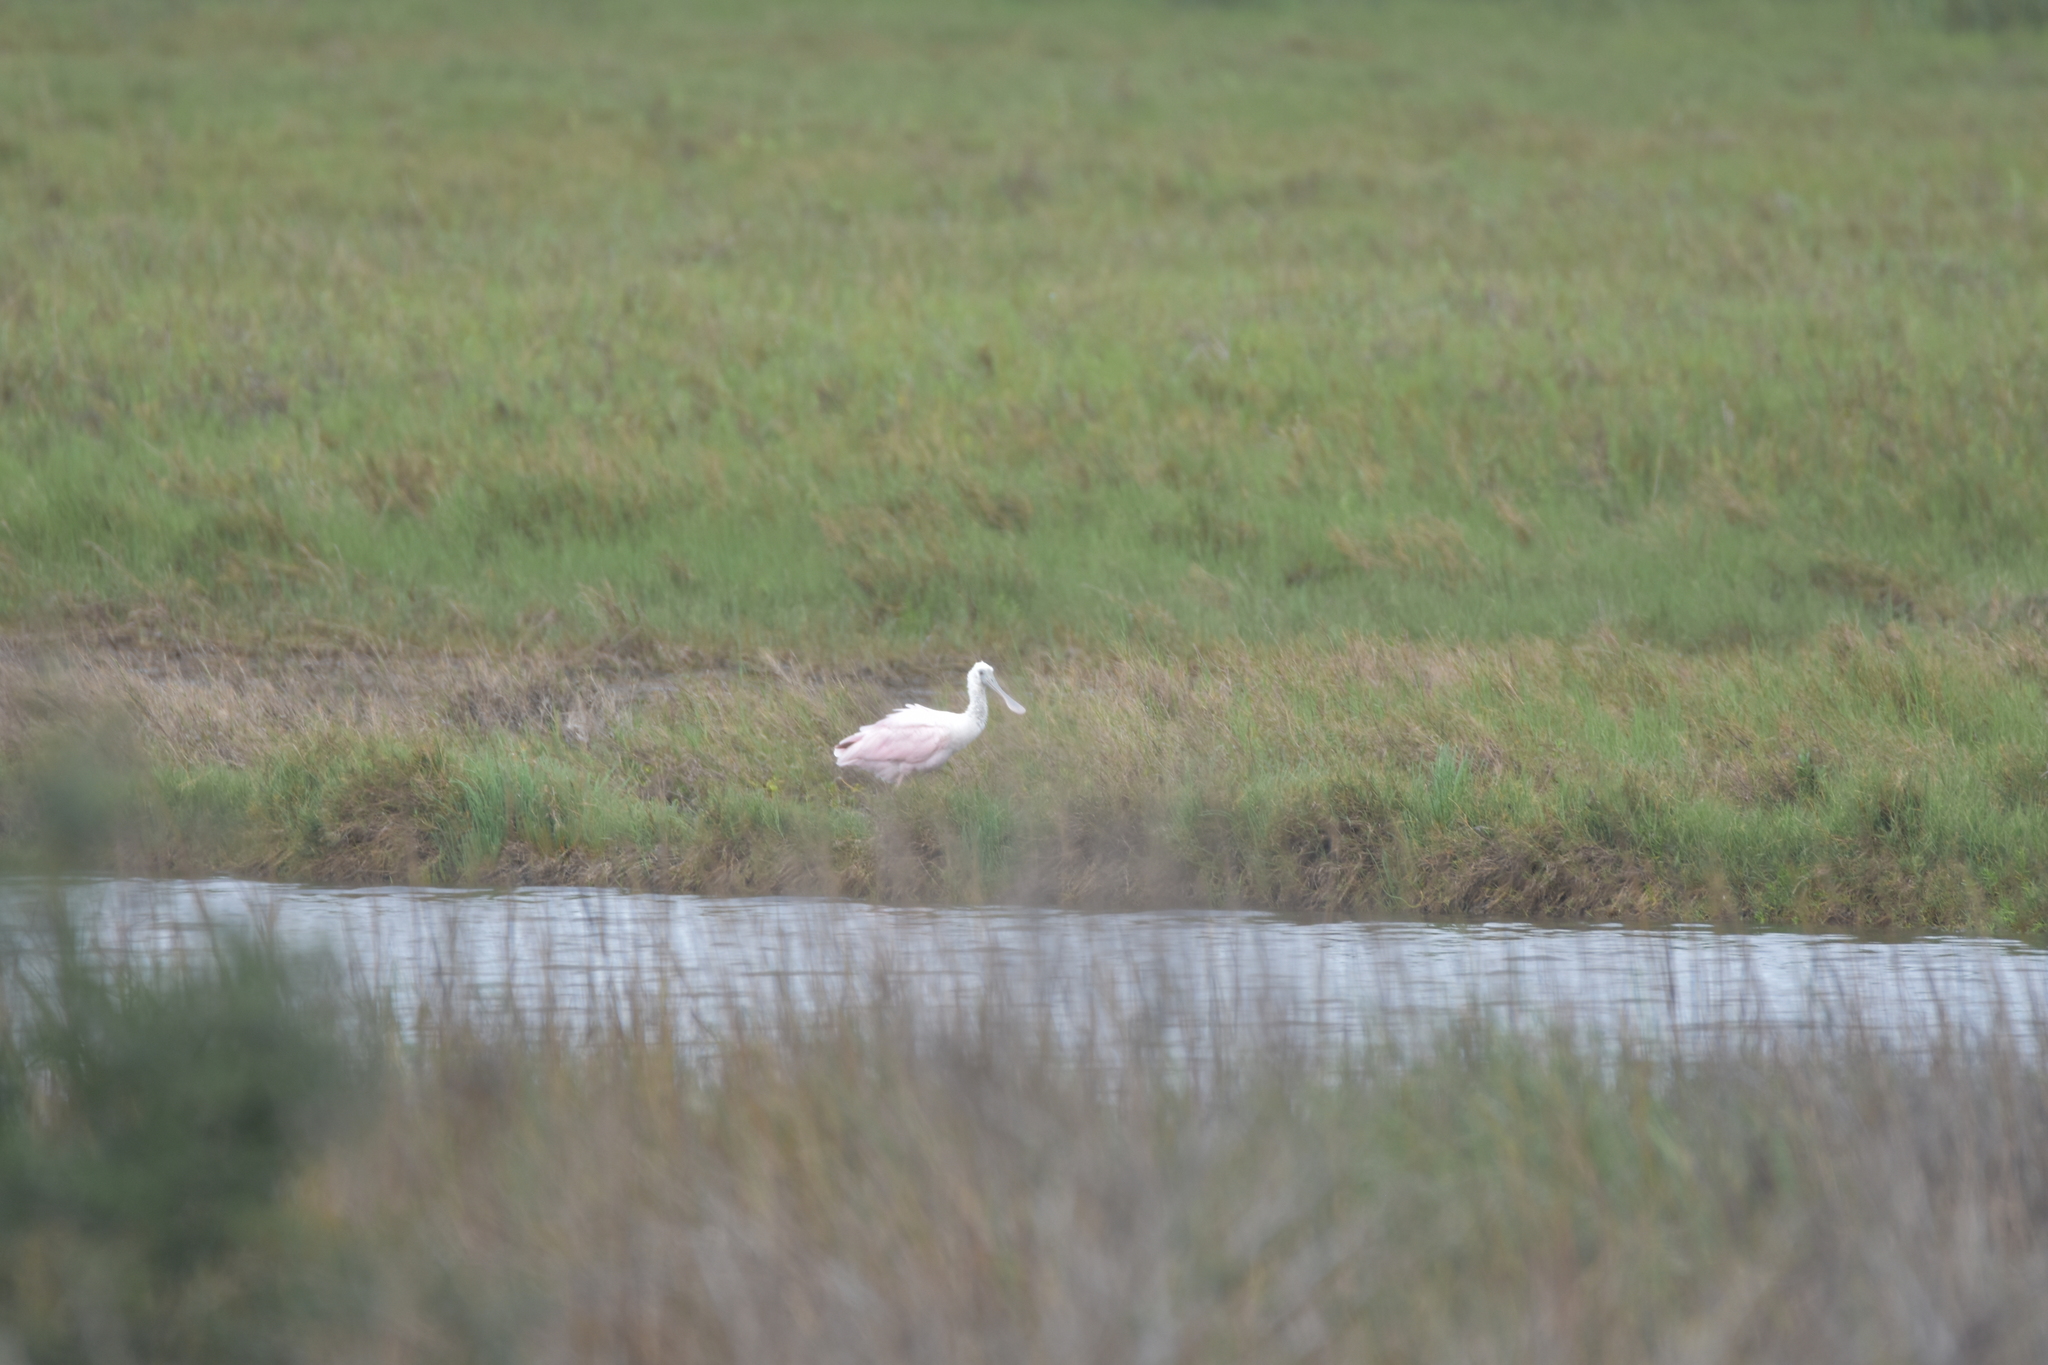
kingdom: Animalia
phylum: Chordata
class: Aves
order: Pelecaniformes
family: Threskiornithidae
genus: Platalea
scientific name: Platalea ajaja
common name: Roseate spoonbill
